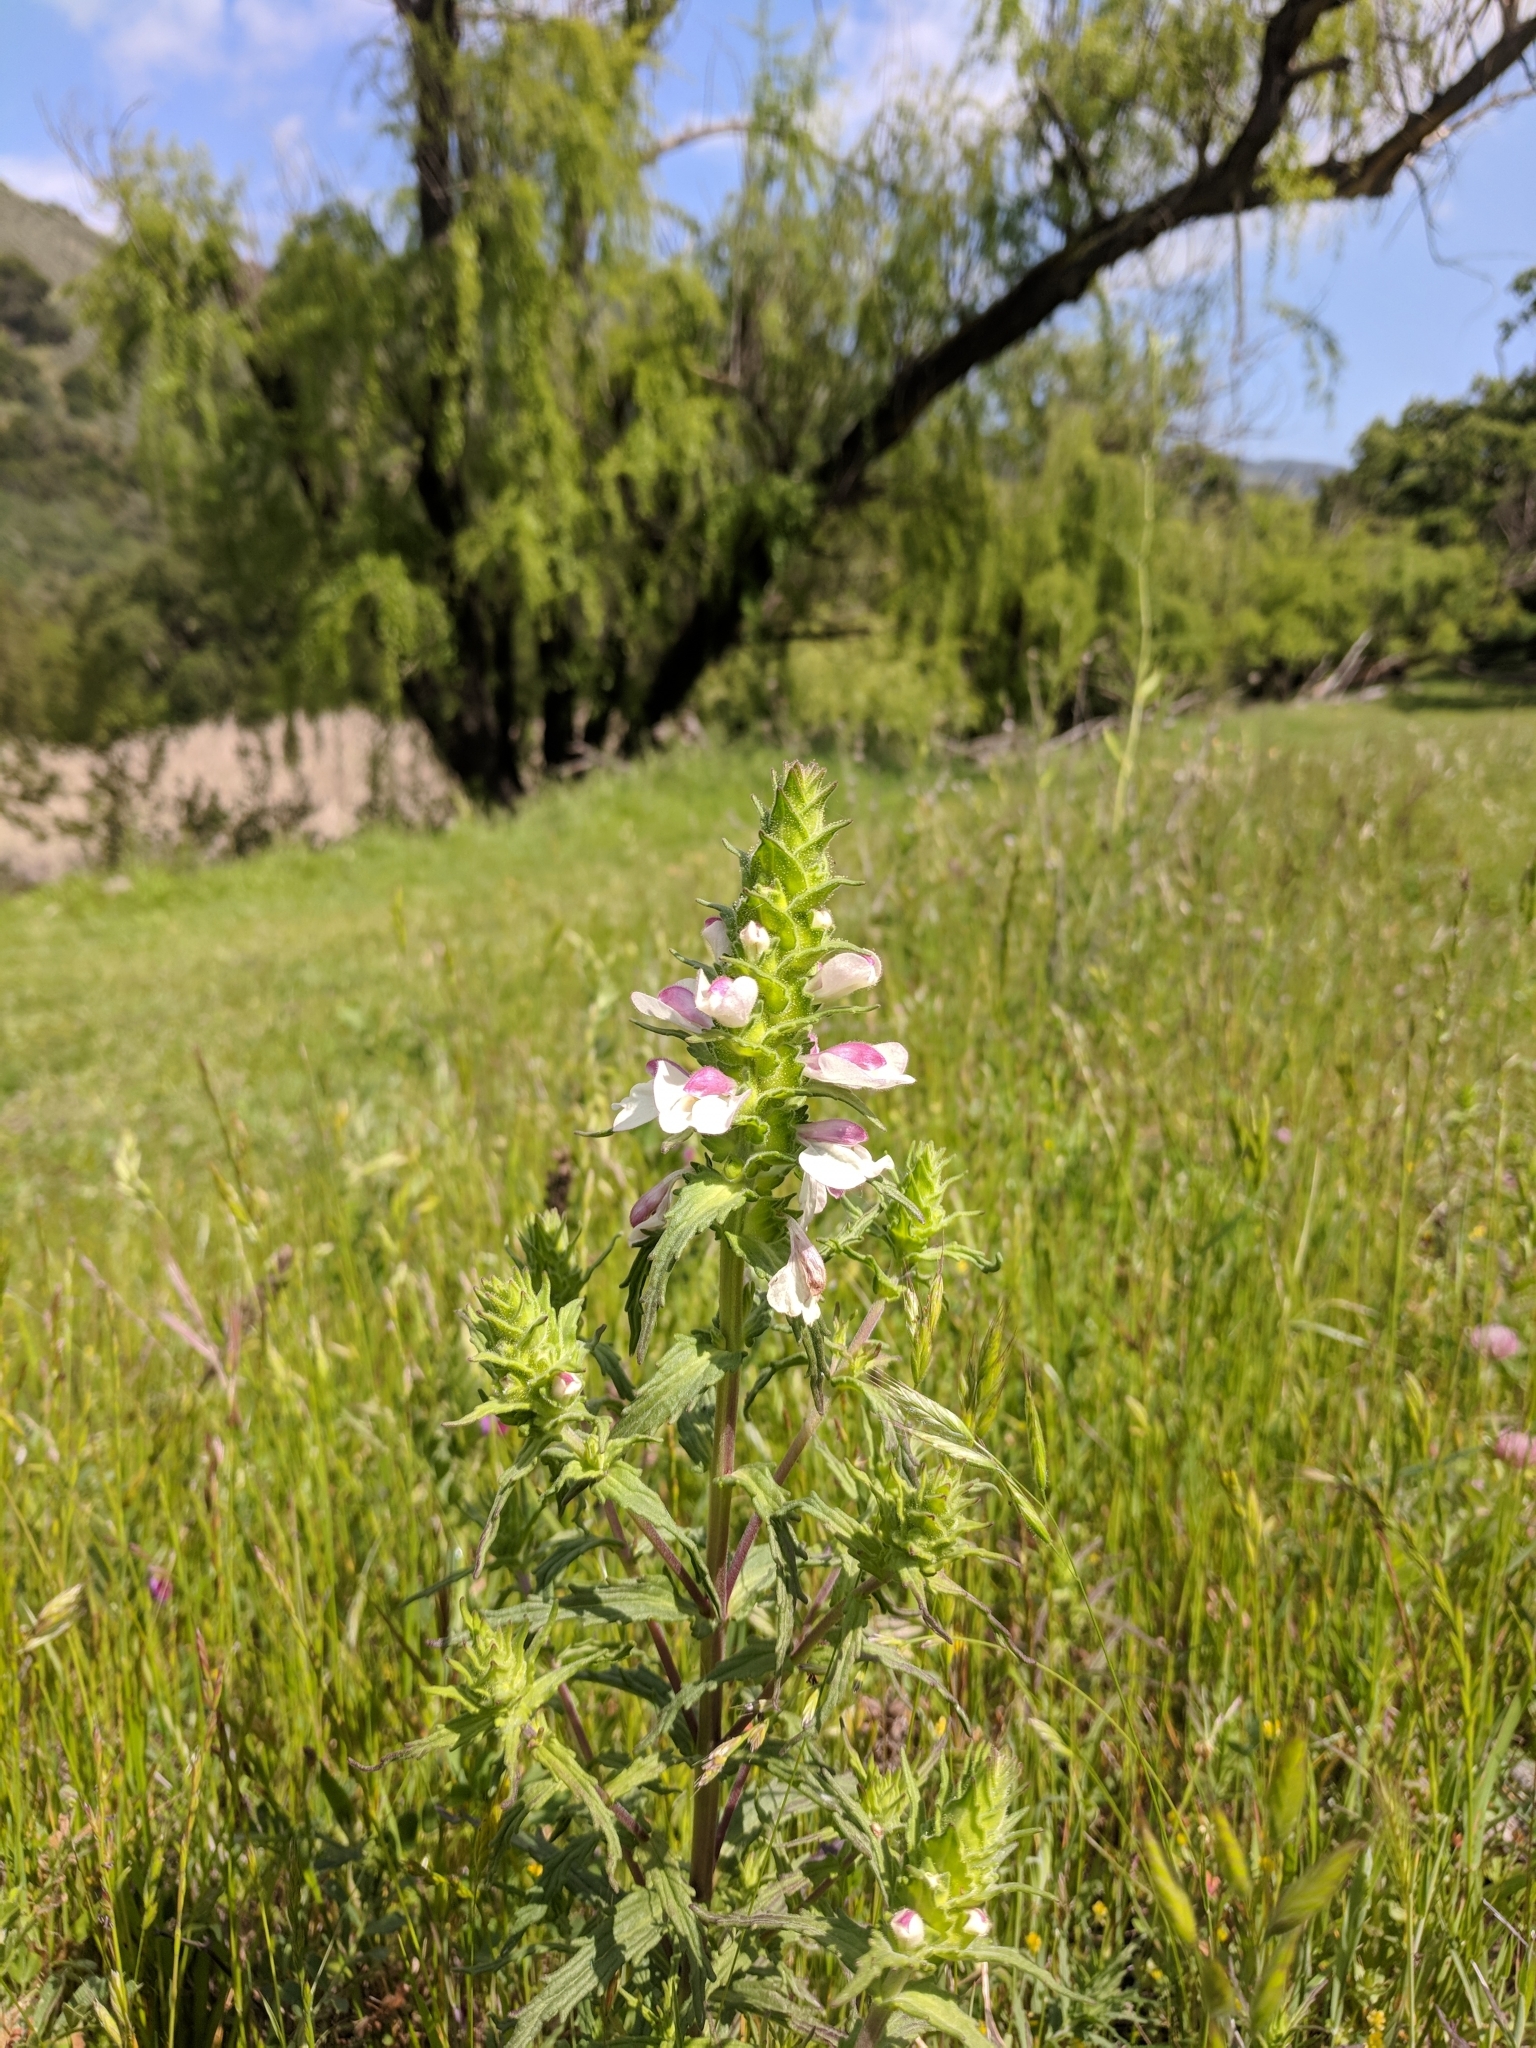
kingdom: Plantae
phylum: Tracheophyta
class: Magnoliopsida
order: Lamiales
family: Orobanchaceae
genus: Bellardia
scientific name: Bellardia trixago
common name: Mediterranean lineseed
